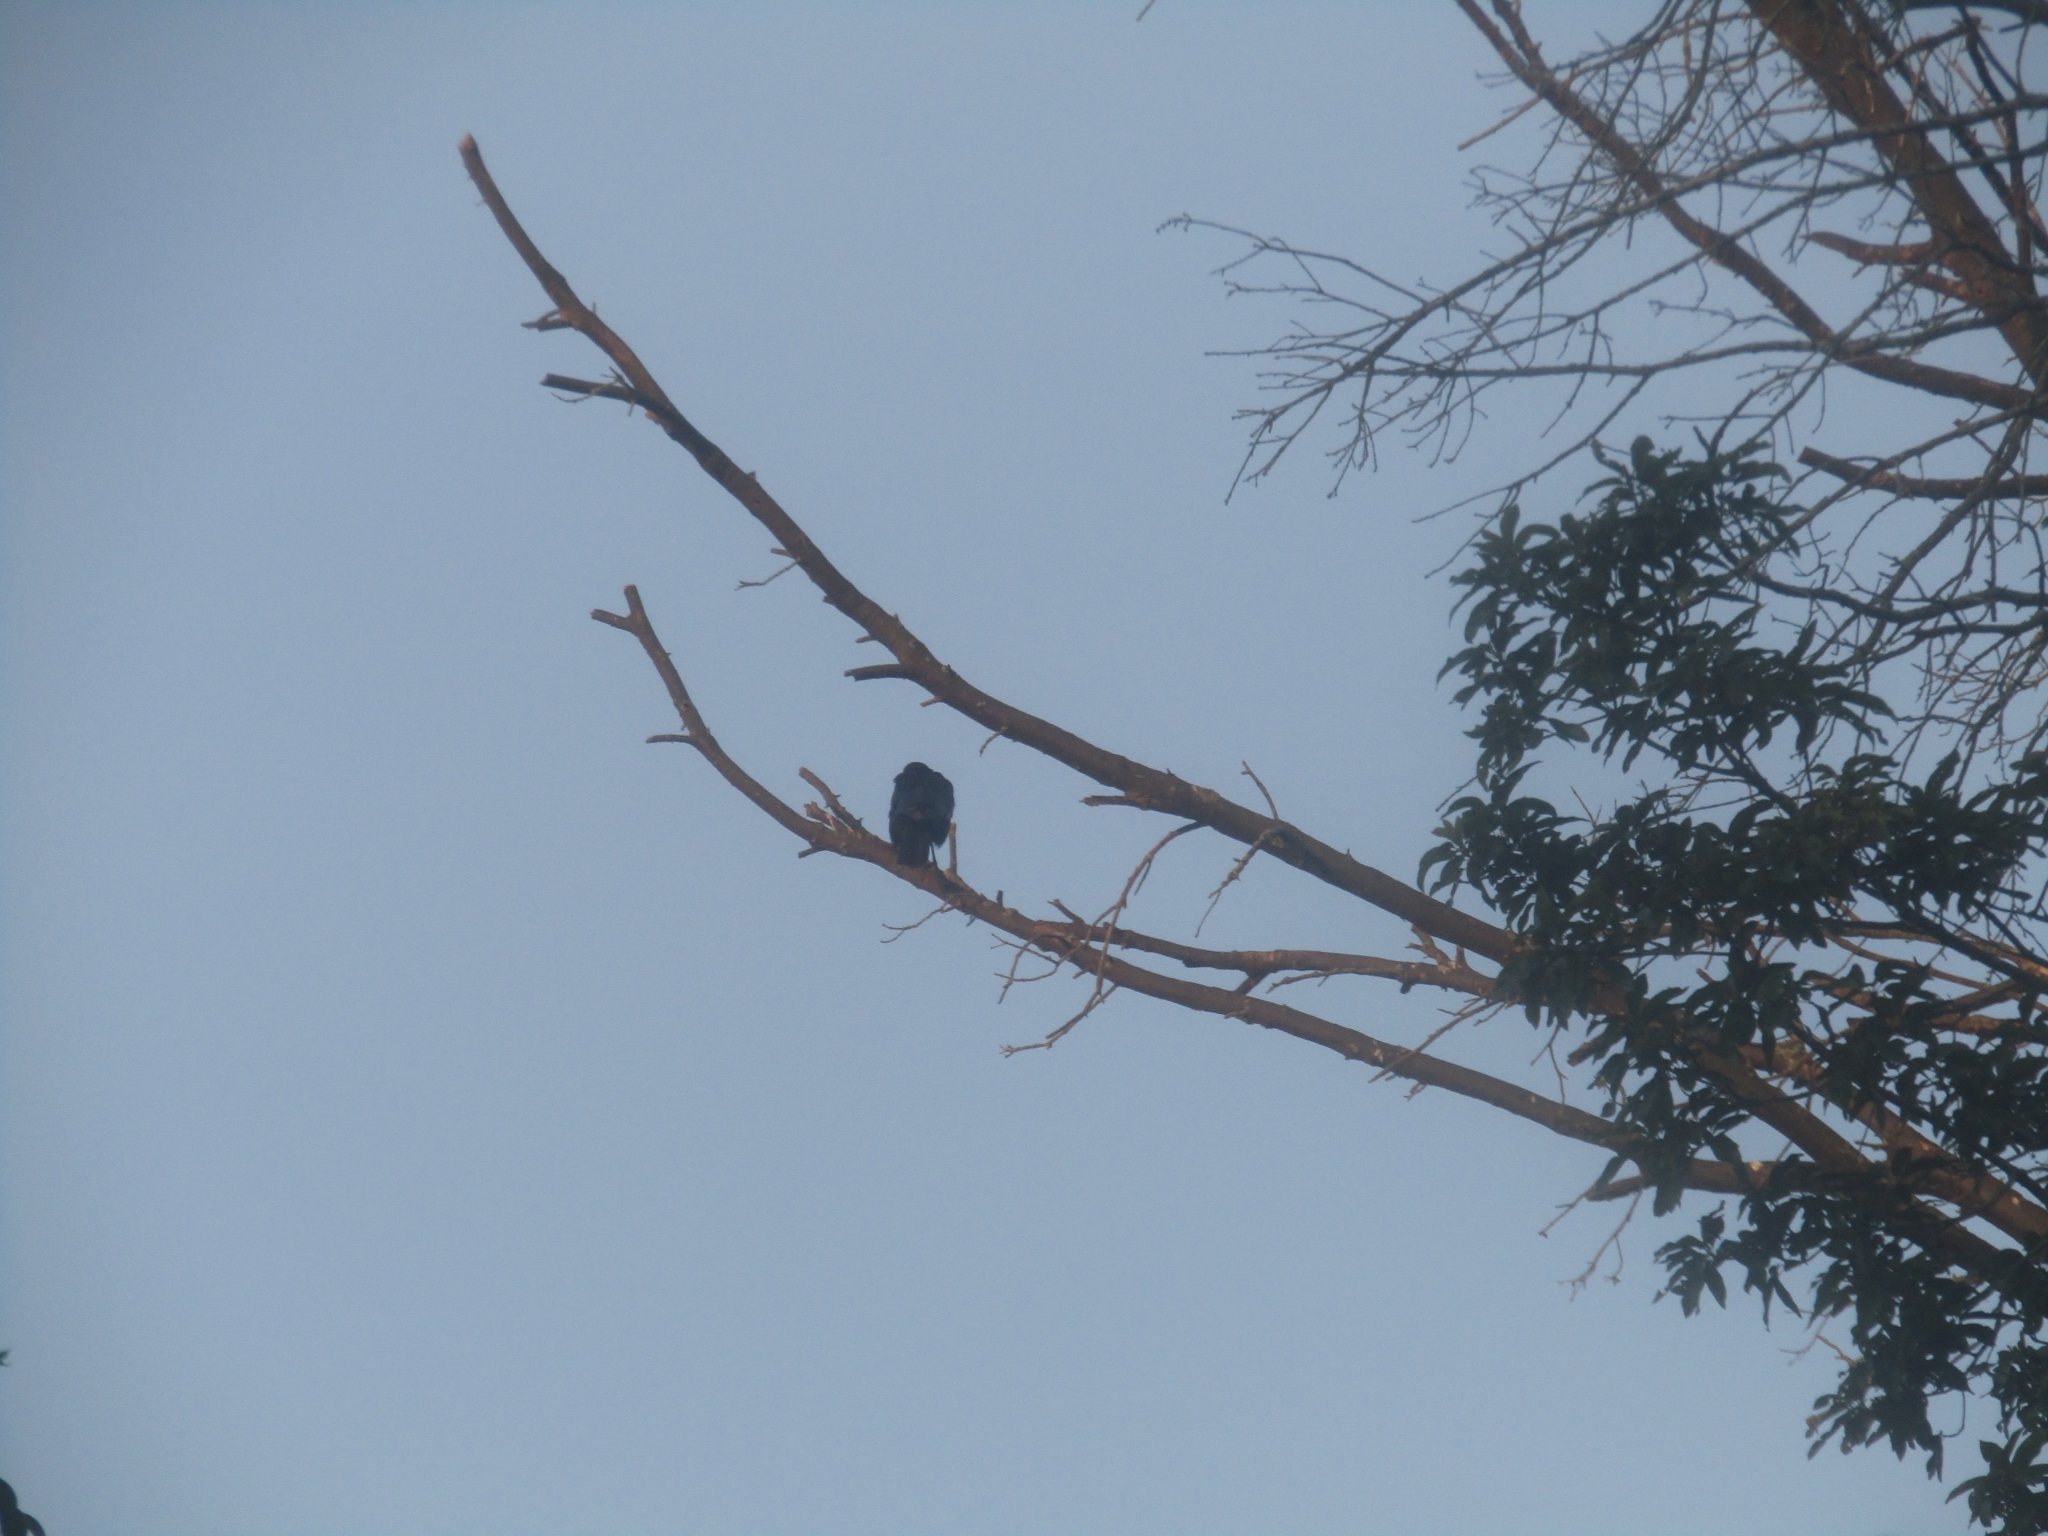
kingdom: Animalia
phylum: Chordata
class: Aves
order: Passeriformes
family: Corvidae
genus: Corvus
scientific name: Corvus brachyrhynchos
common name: American crow
